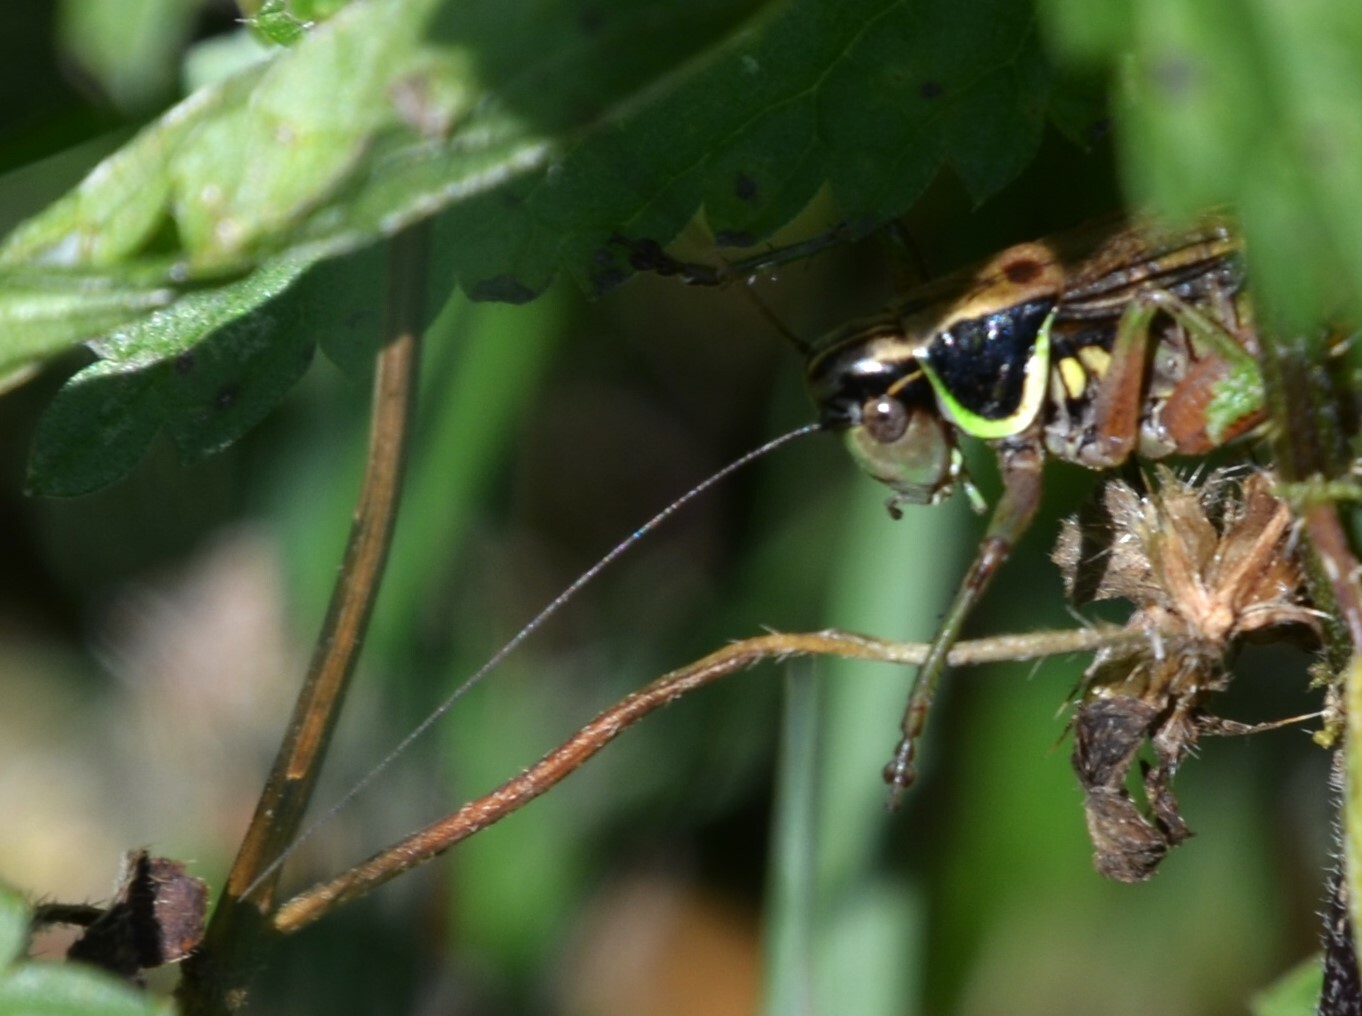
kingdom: Animalia
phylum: Arthropoda
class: Insecta
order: Orthoptera
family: Tettigoniidae
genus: Roeseliana
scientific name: Roeseliana roeselii
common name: Roesel's bush cricket
